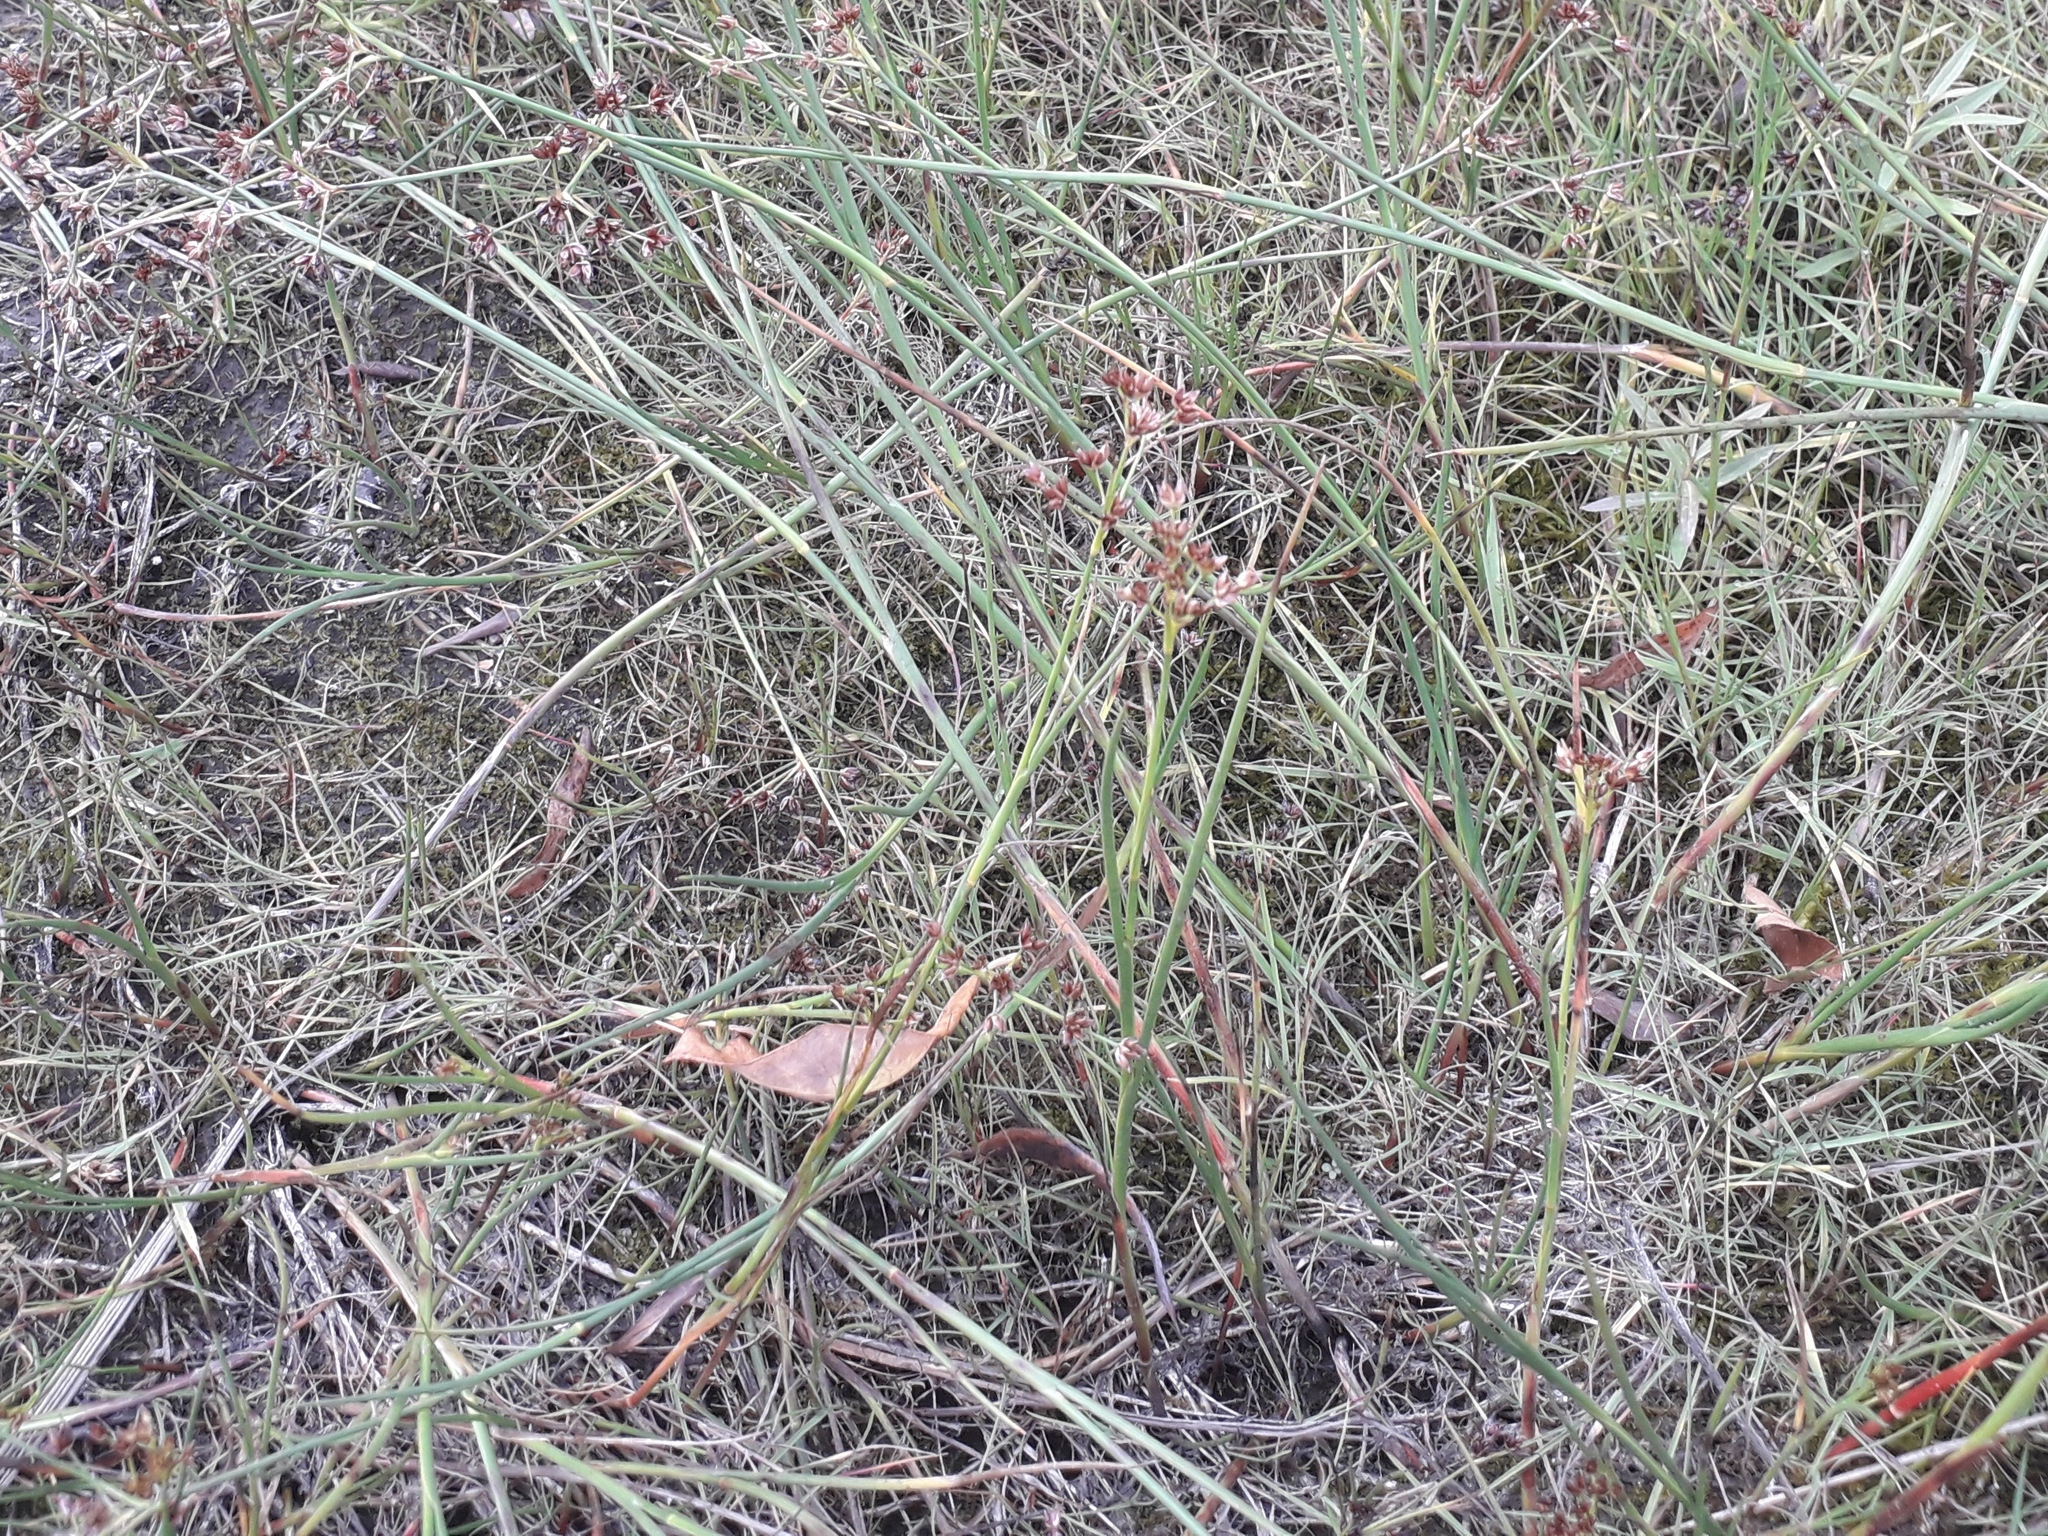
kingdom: Plantae
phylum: Tracheophyta
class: Liliopsida
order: Poales
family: Juncaceae
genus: Juncus
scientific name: Juncus articulatus
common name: Jointed rush
